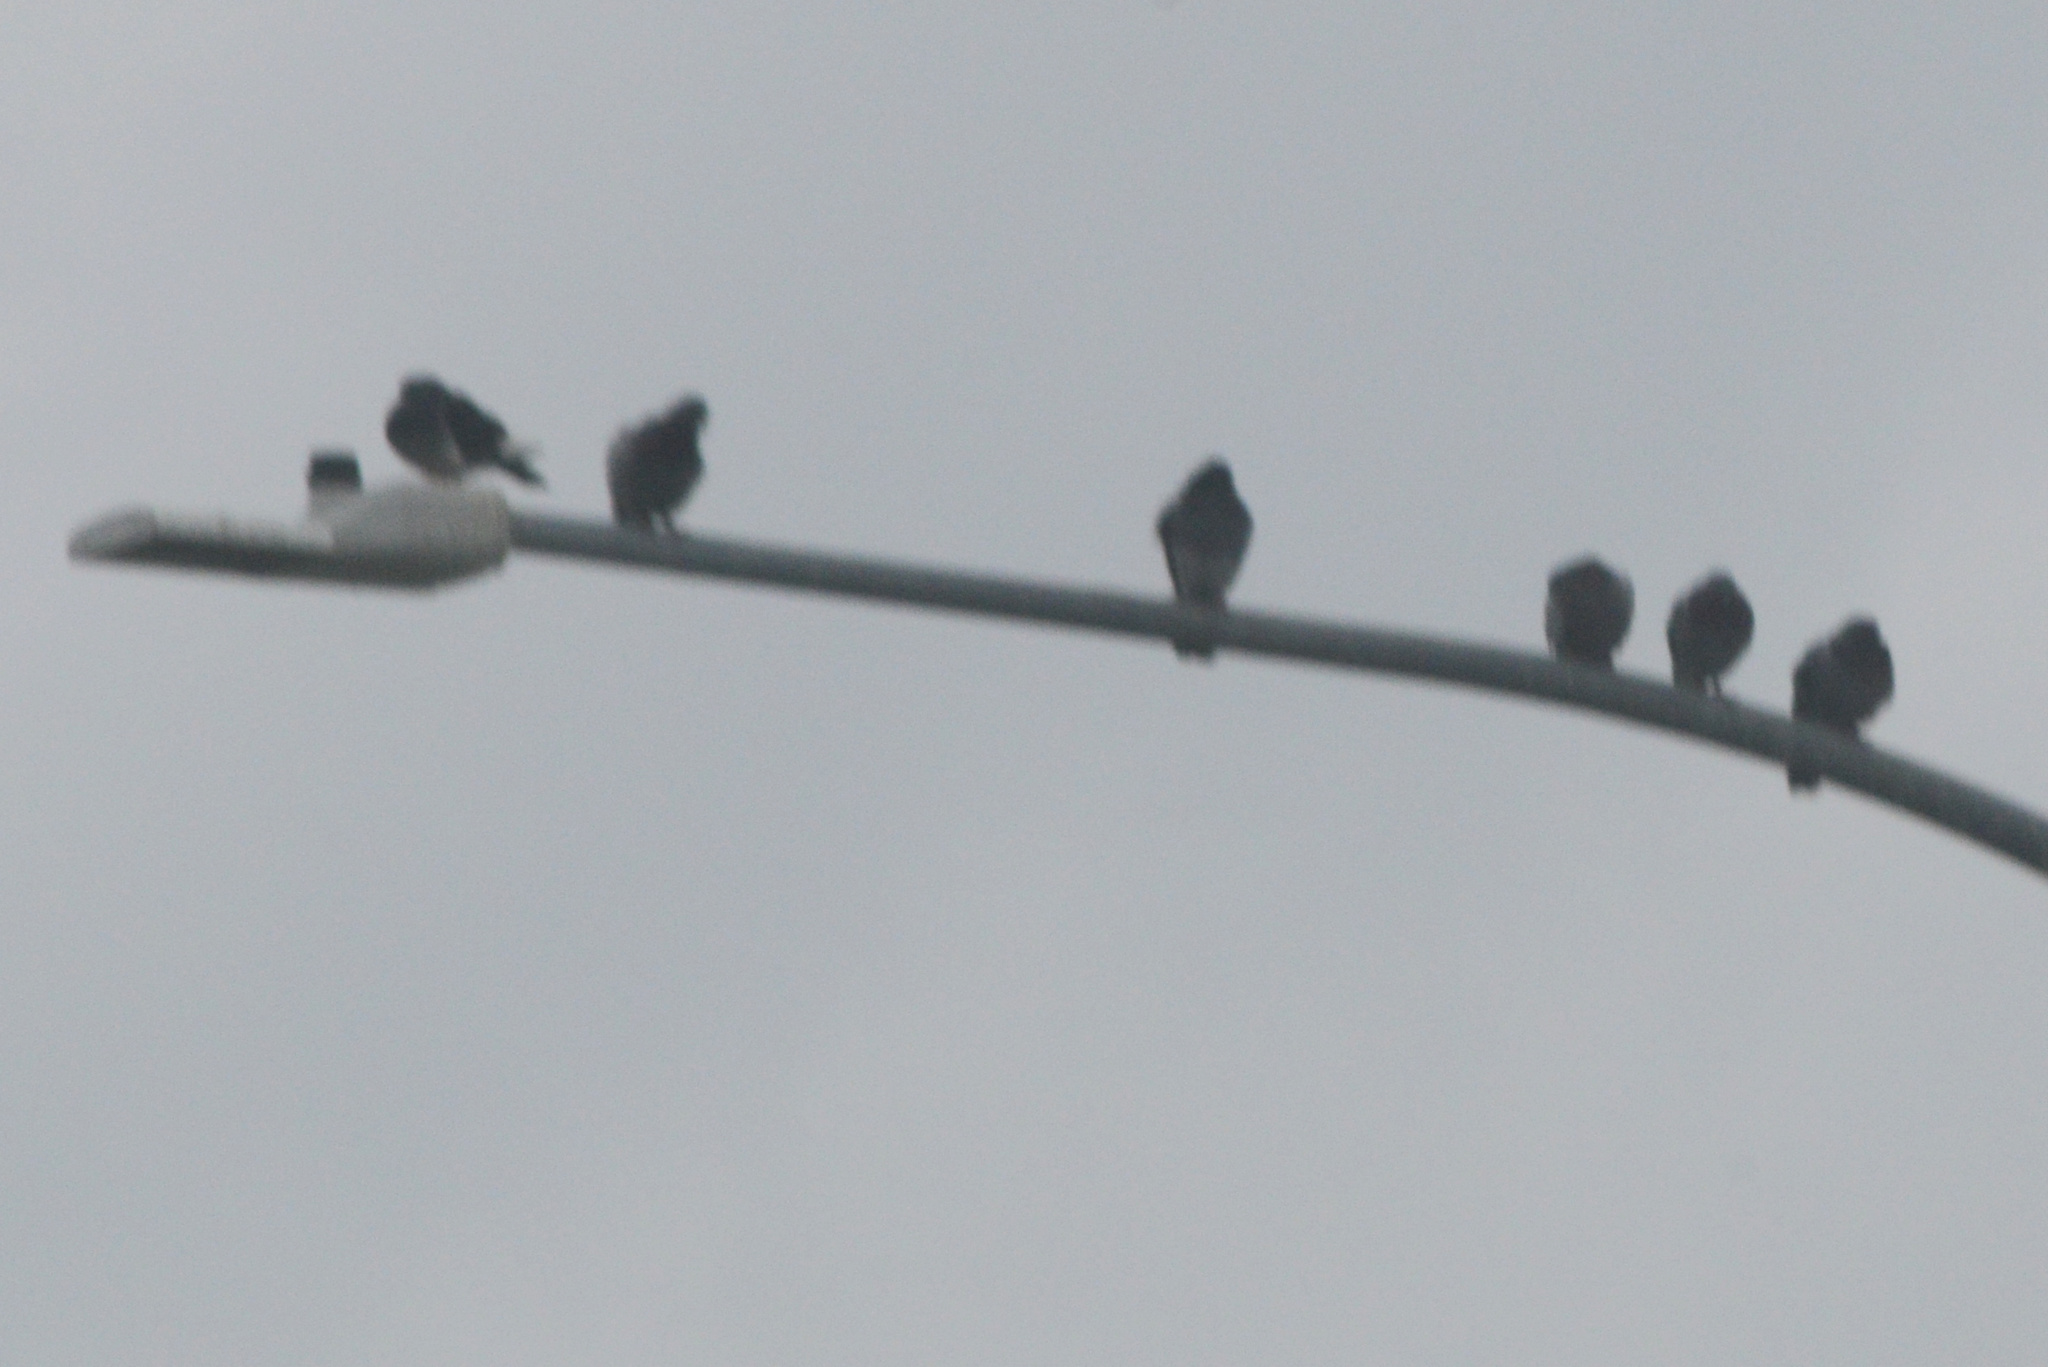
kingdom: Animalia
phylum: Chordata
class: Aves
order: Columbiformes
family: Columbidae
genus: Columba
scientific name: Columba livia
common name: Rock pigeon
